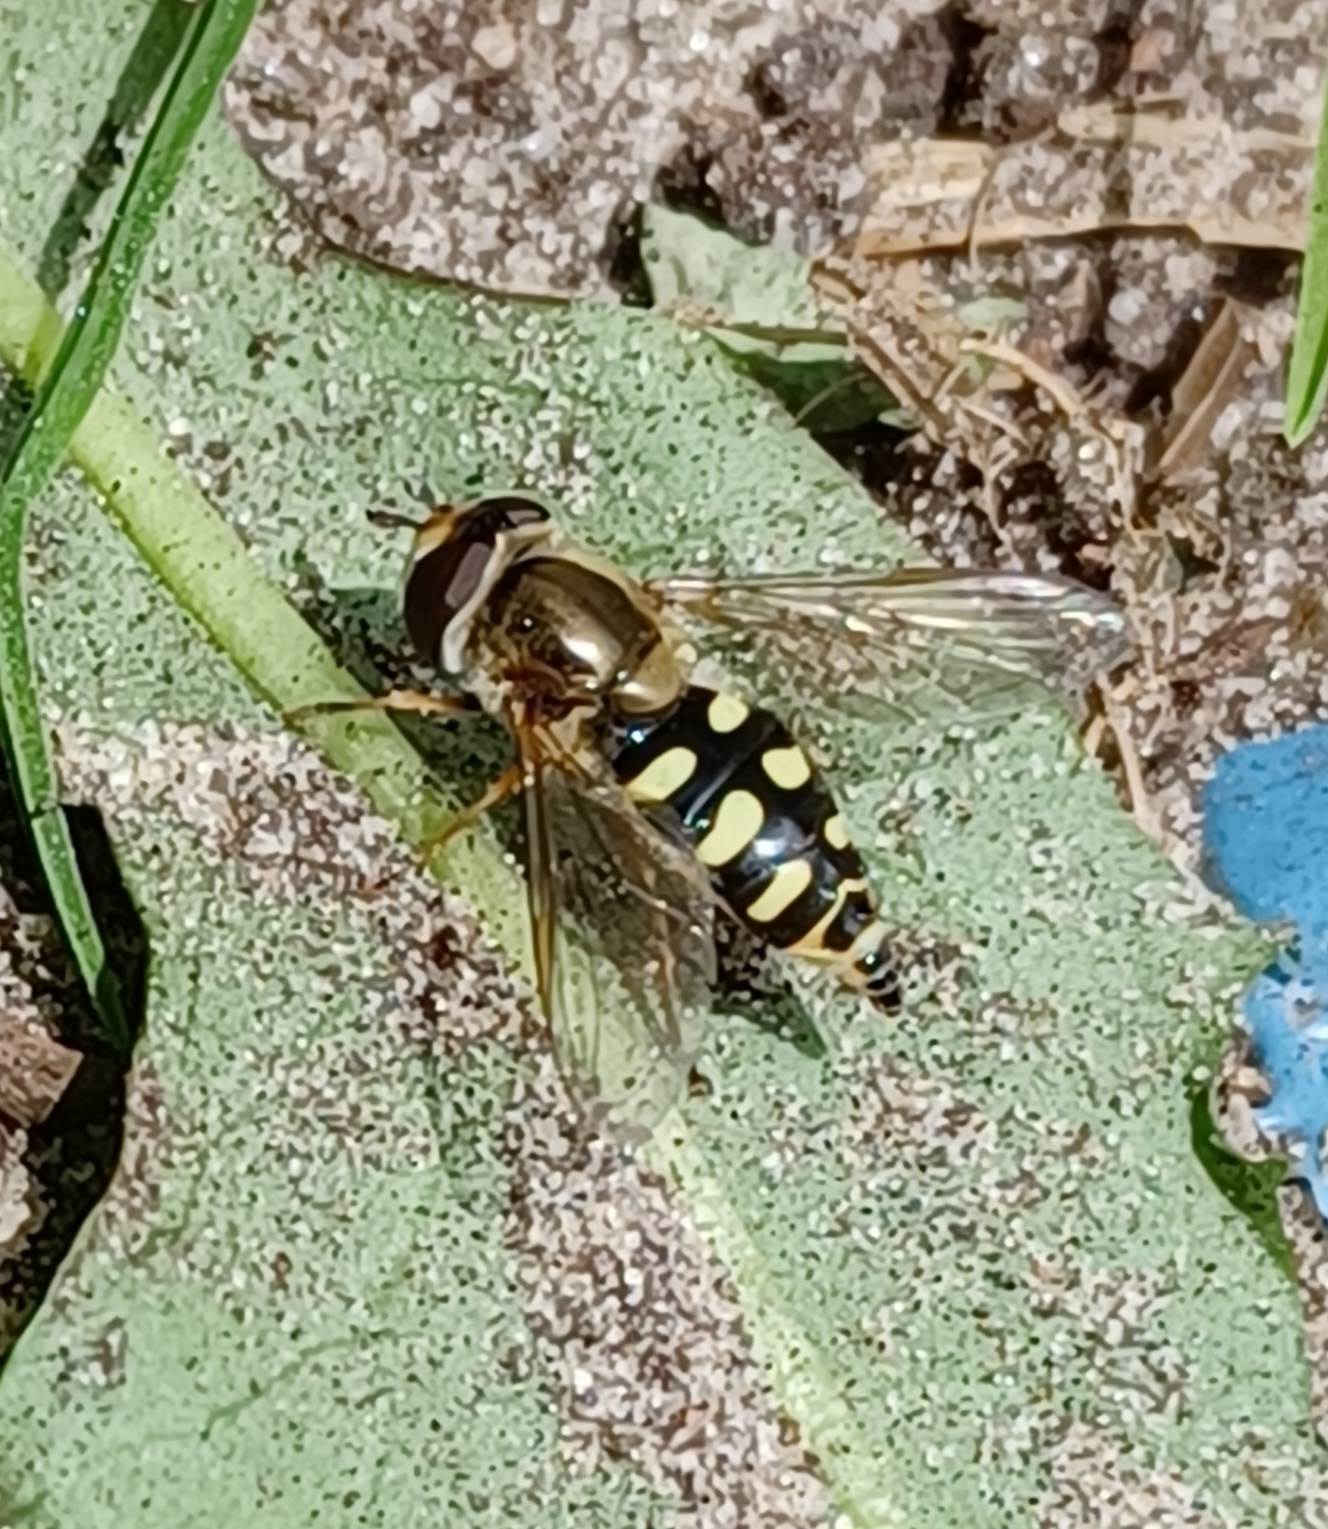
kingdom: Animalia
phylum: Arthropoda
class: Insecta
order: Diptera
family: Syrphidae
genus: Eupeodes
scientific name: Eupeodes
